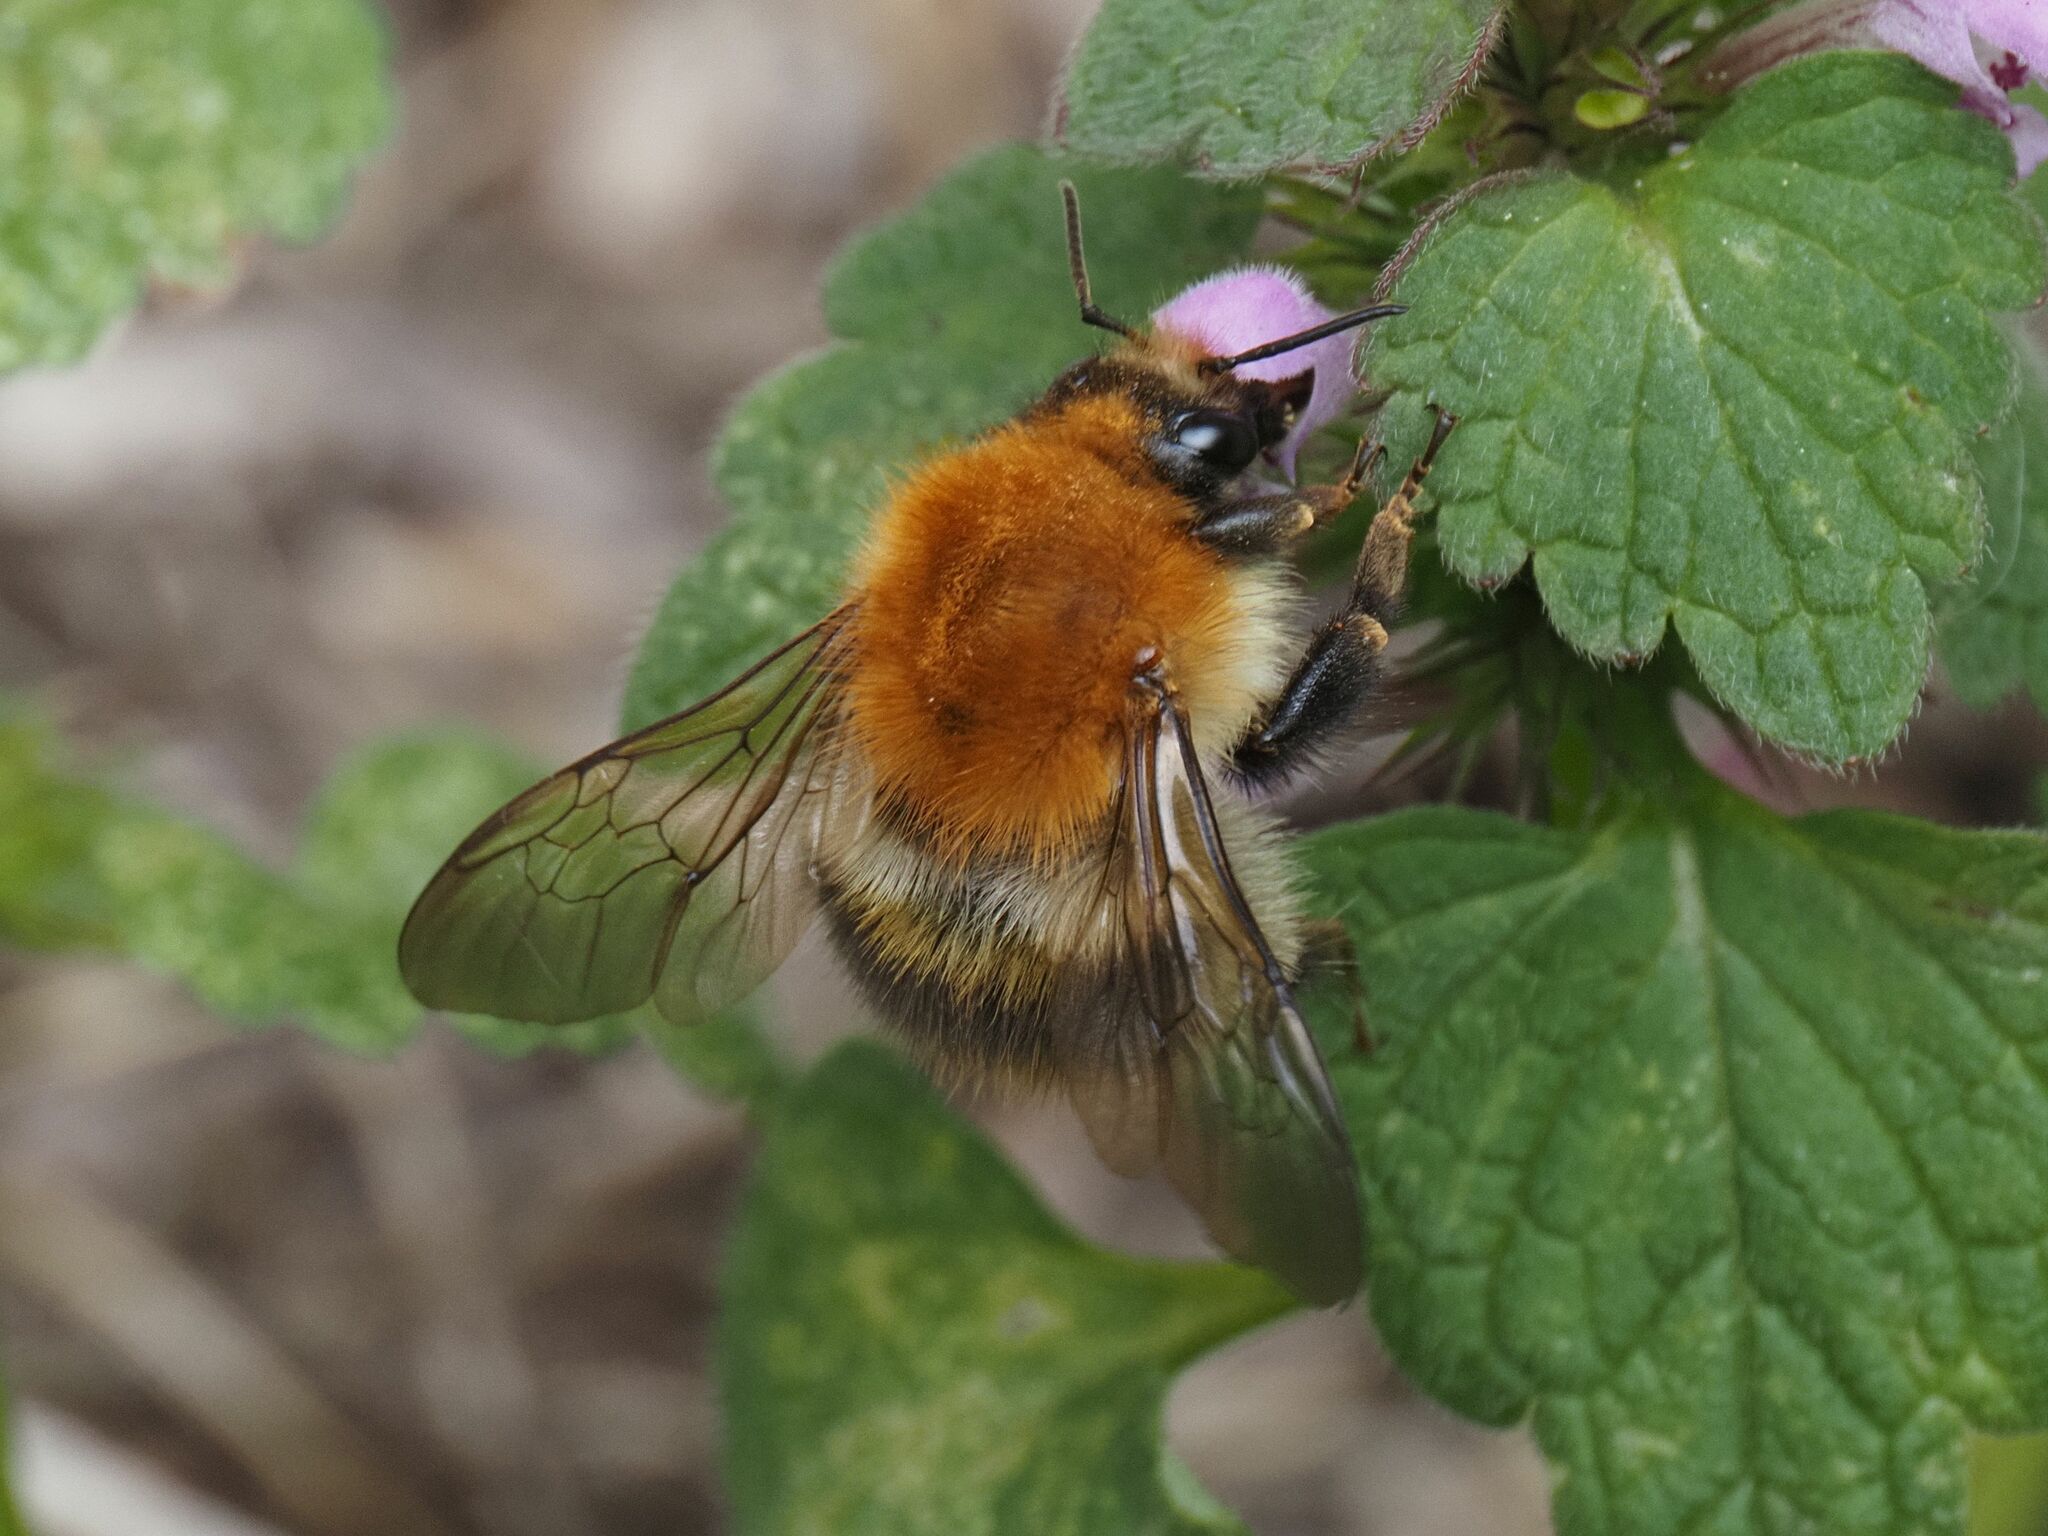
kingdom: Animalia
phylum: Arthropoda
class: Insecta
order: Hymenoptera
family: Apidae
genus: Bombus
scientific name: Bombus pascuorum
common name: Common carder bee
